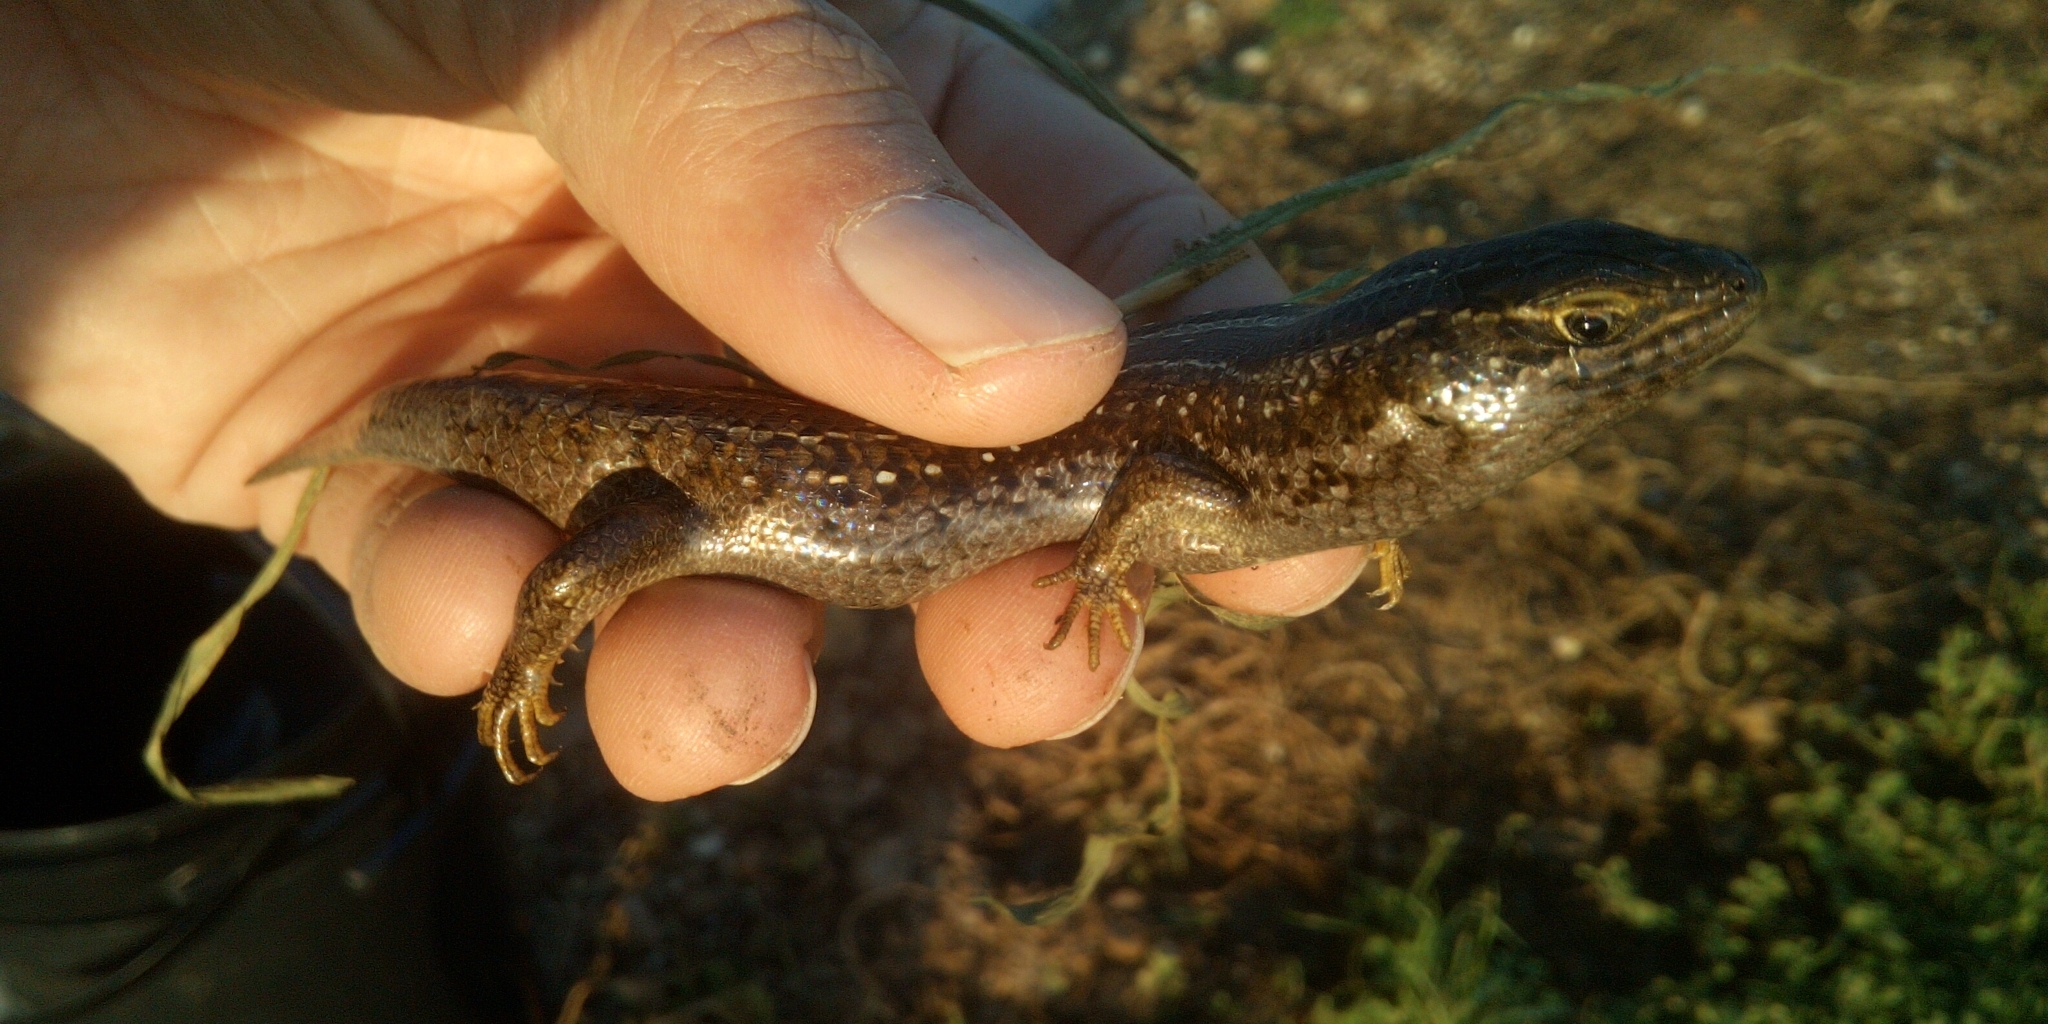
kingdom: Animalia
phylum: Chordata
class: Squamata
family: Scincidae
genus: Trachylepis
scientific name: Trachylepis capensis
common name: Cape skink
